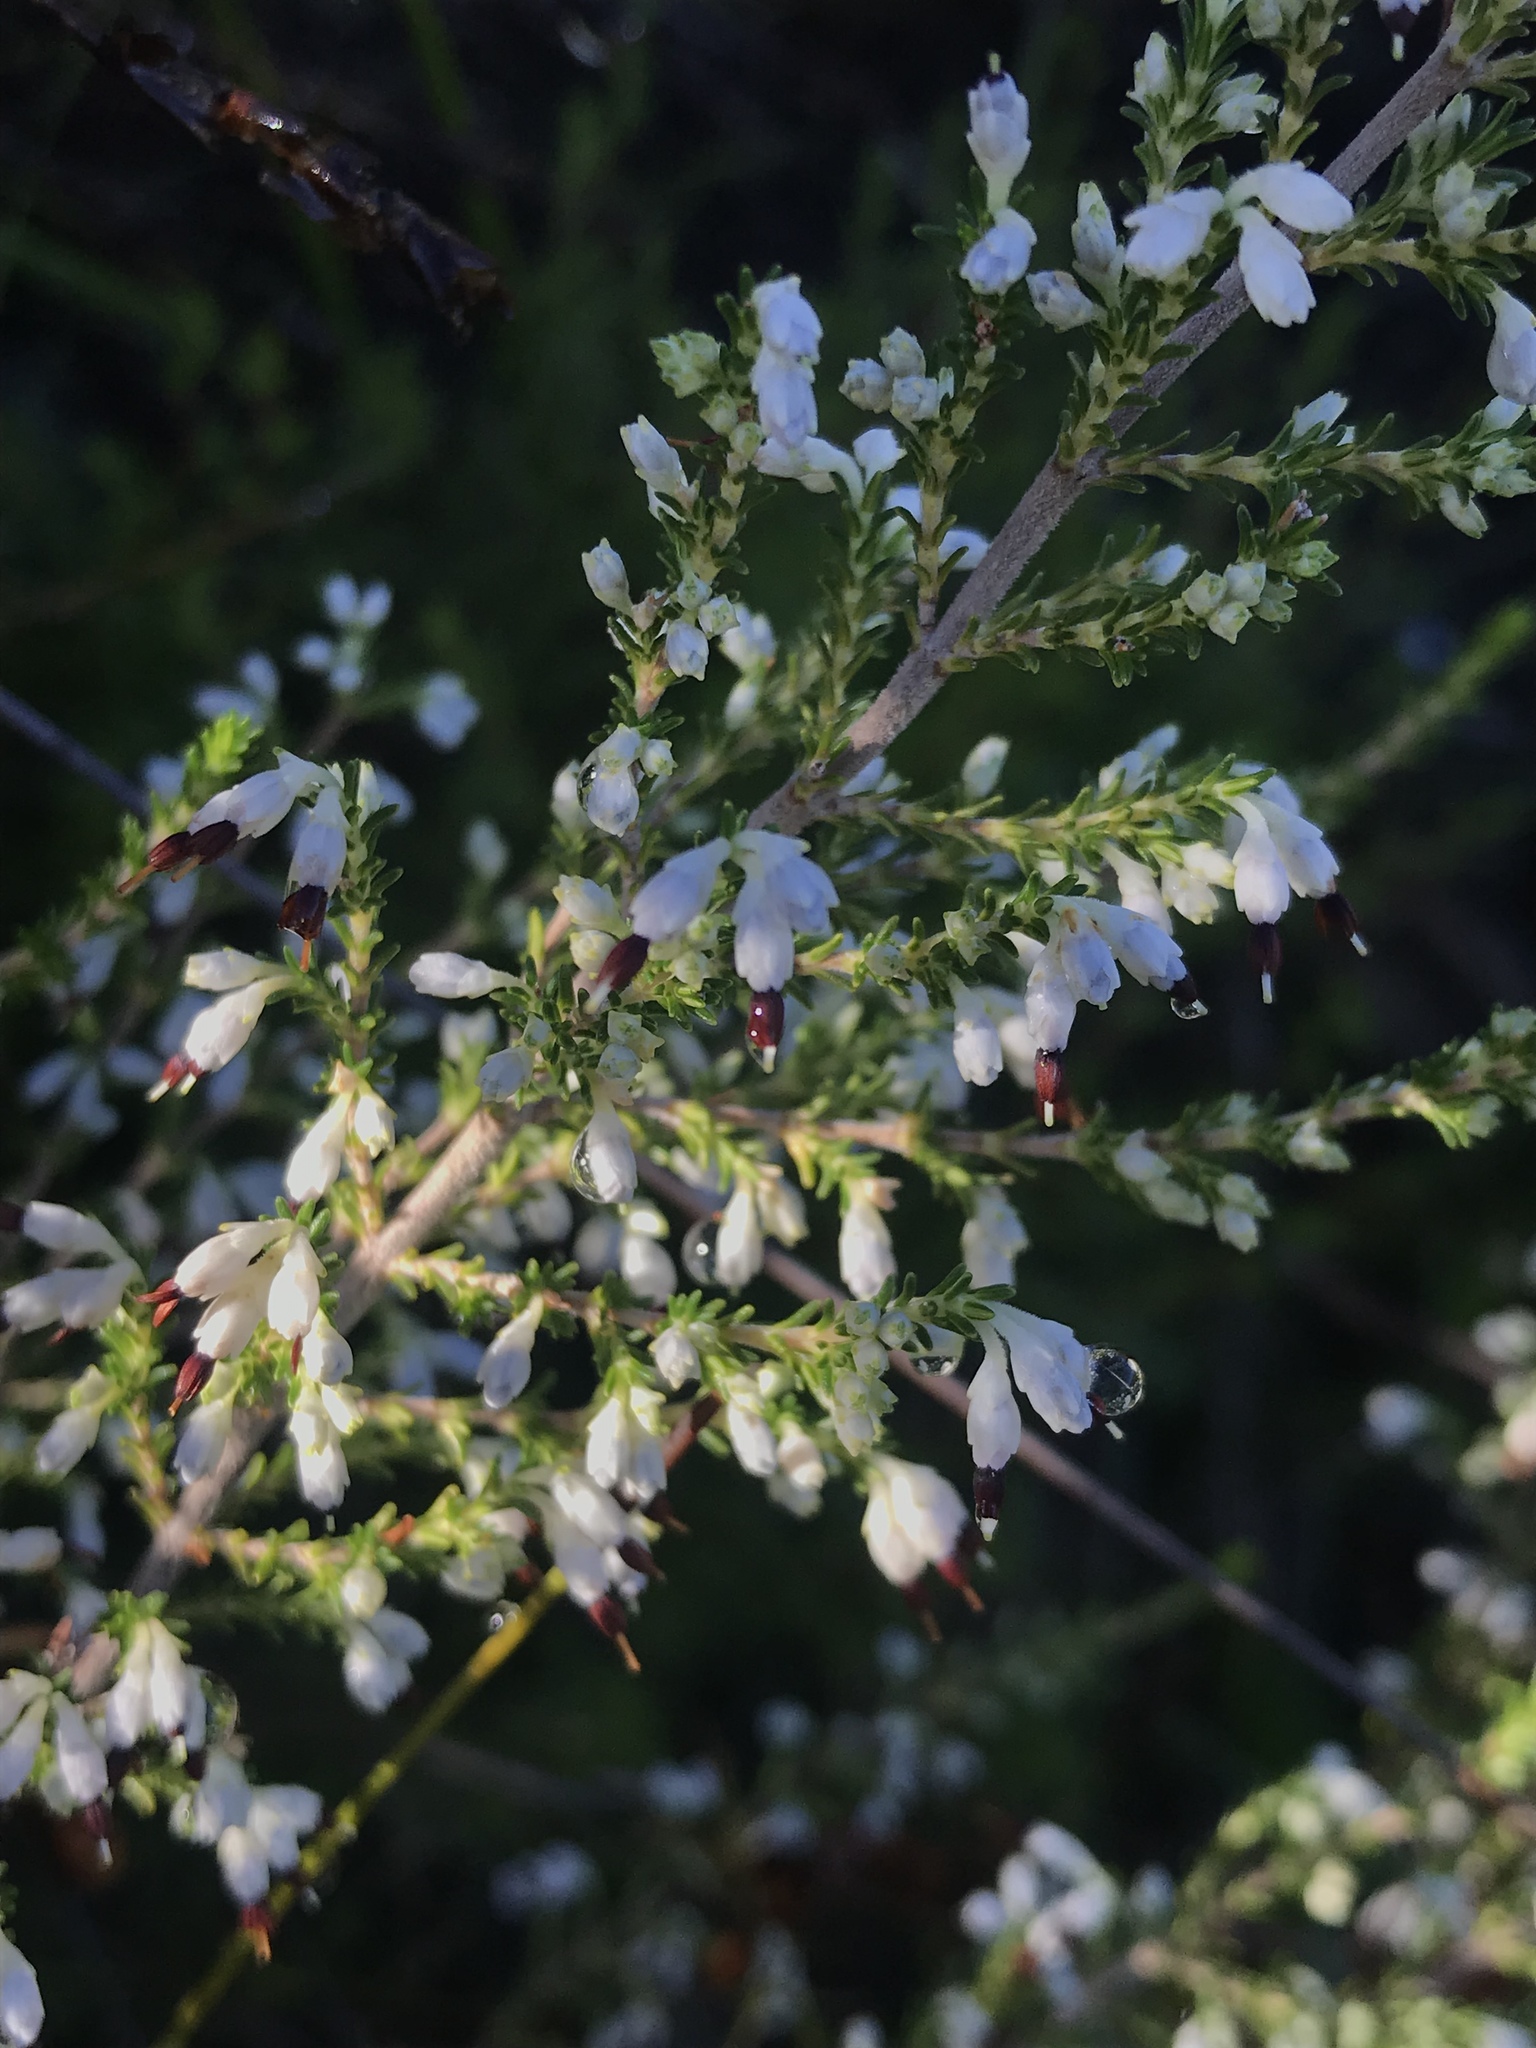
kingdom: Plantae
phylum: Tracheophyta
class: Magnoliopsida
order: Ericales
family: Ericaceae
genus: Erica
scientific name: Erica imbricata
